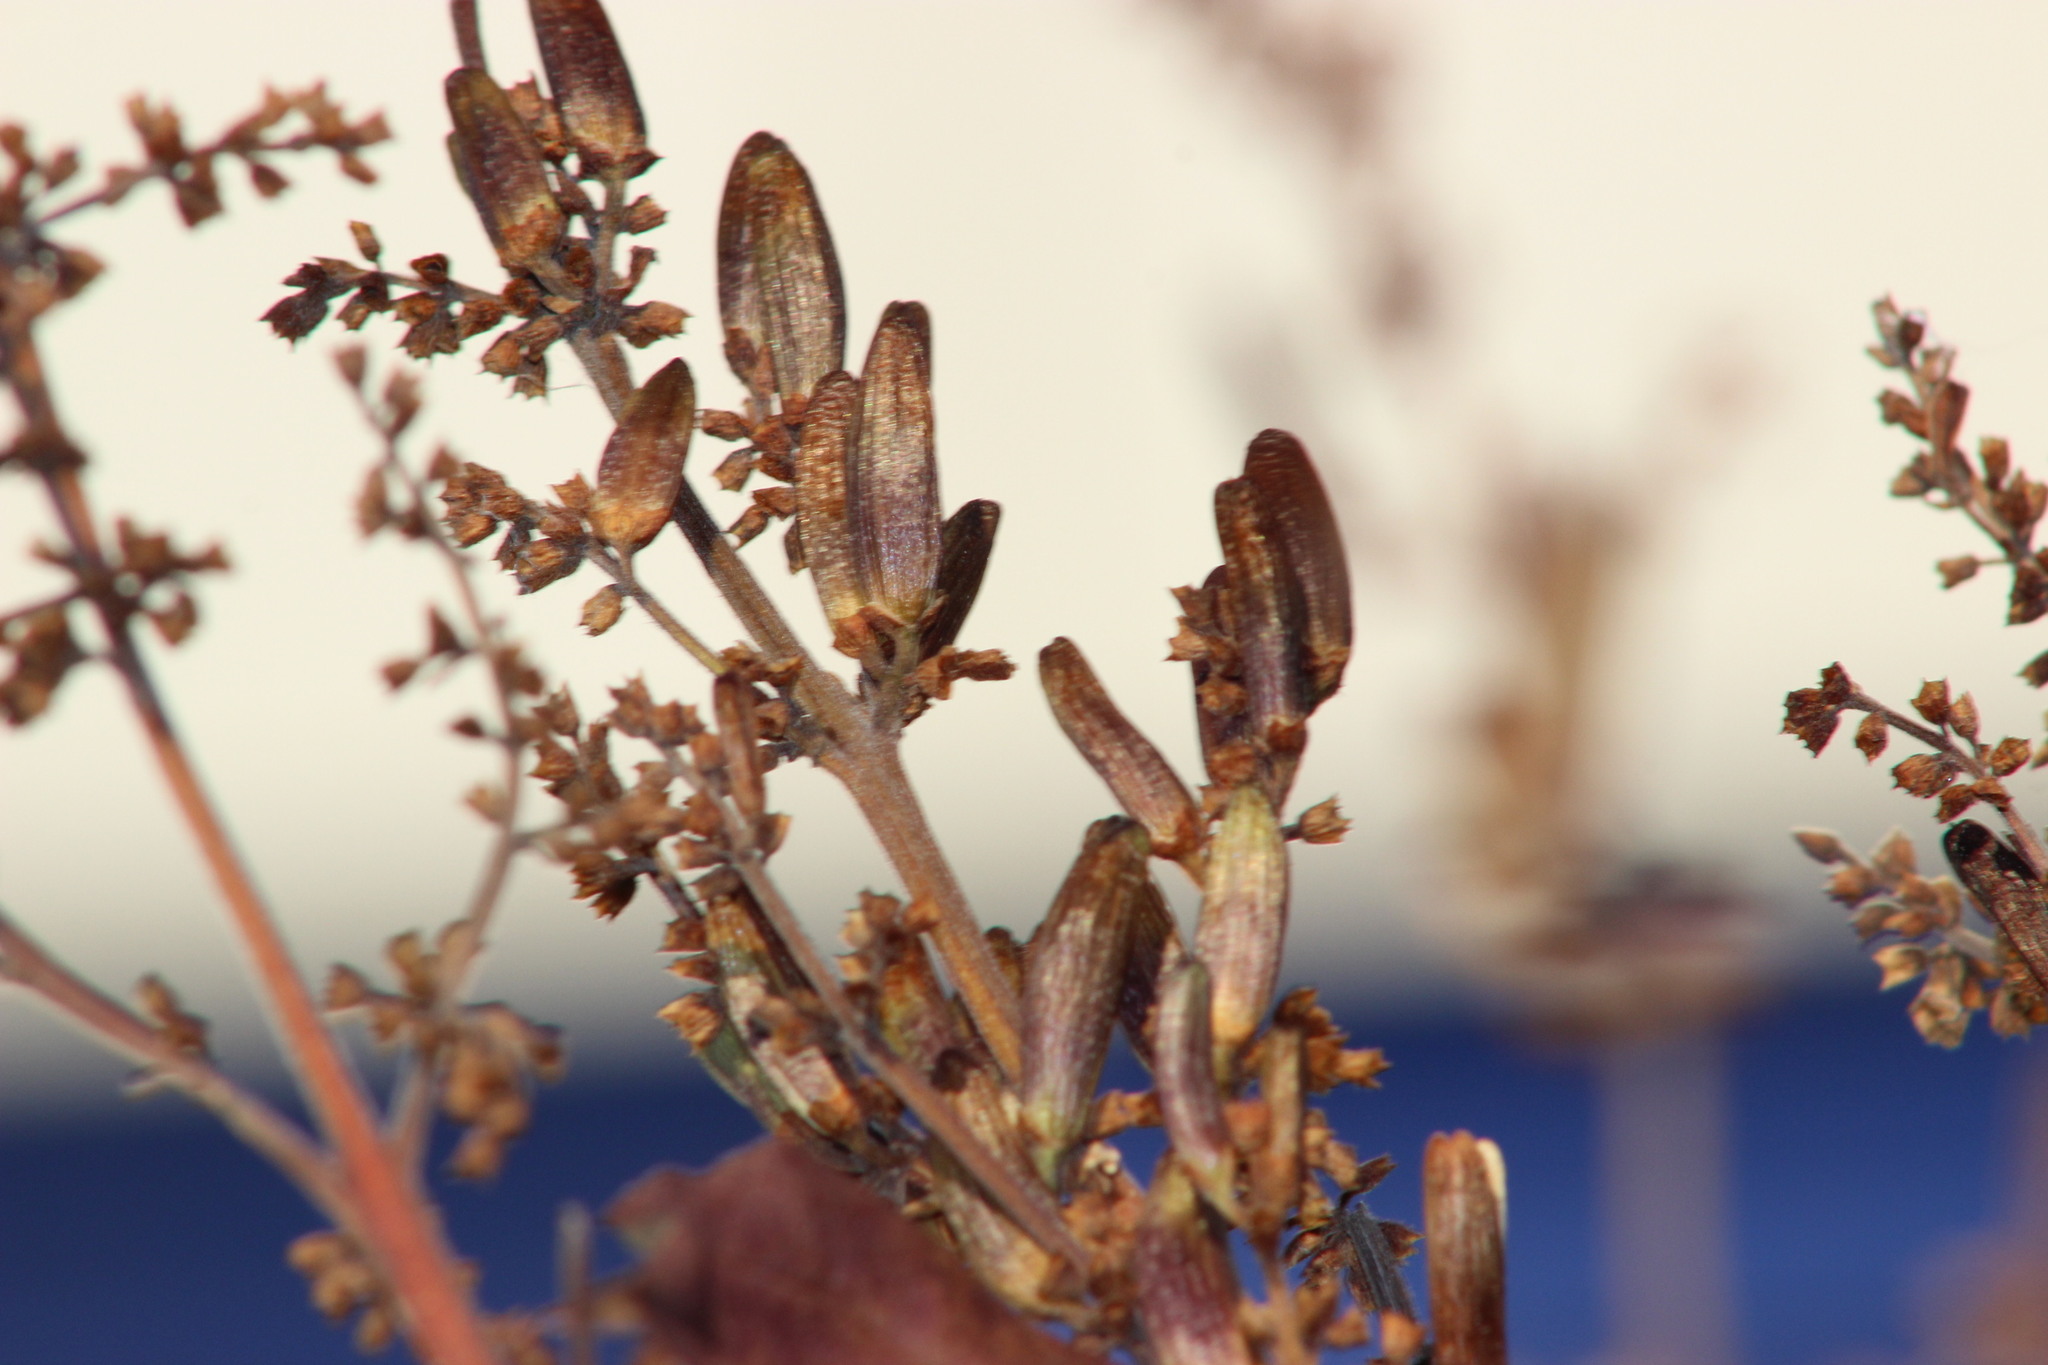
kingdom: Plantae
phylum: Tracheophyta
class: Magnoliopsida
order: Asterales
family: Asteraceae
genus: Cichorium
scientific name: Cichorium intybus
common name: Chicory
